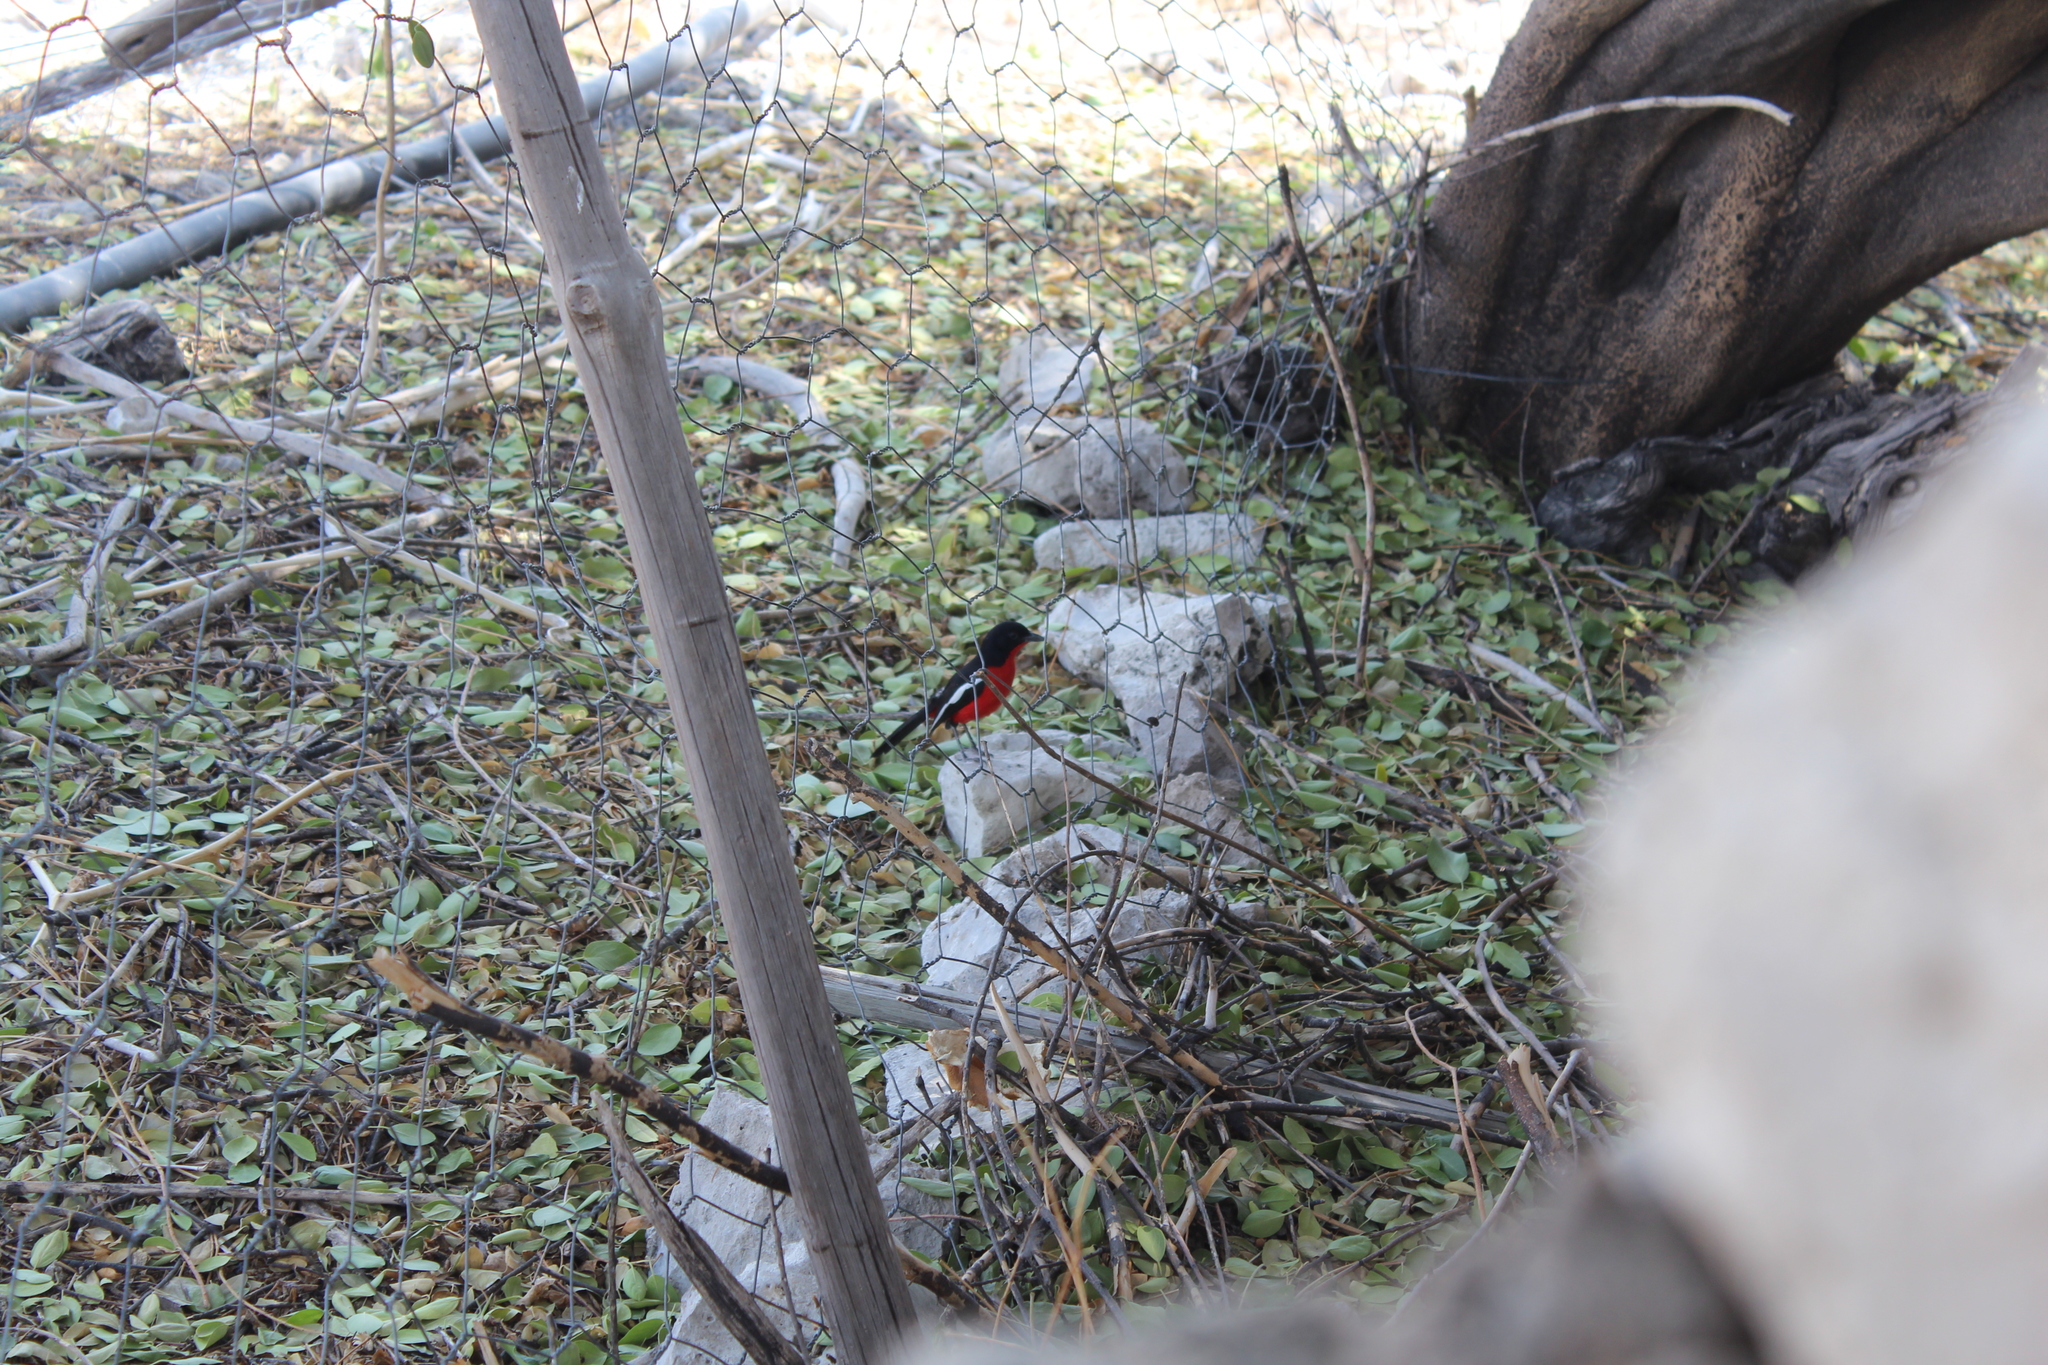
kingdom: Animalia
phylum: Chordata
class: Aves
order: Passeriformes
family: Malaconotidae
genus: Laniarius
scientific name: Laniarius atrococcineus
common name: Crimson-breasted shrike
